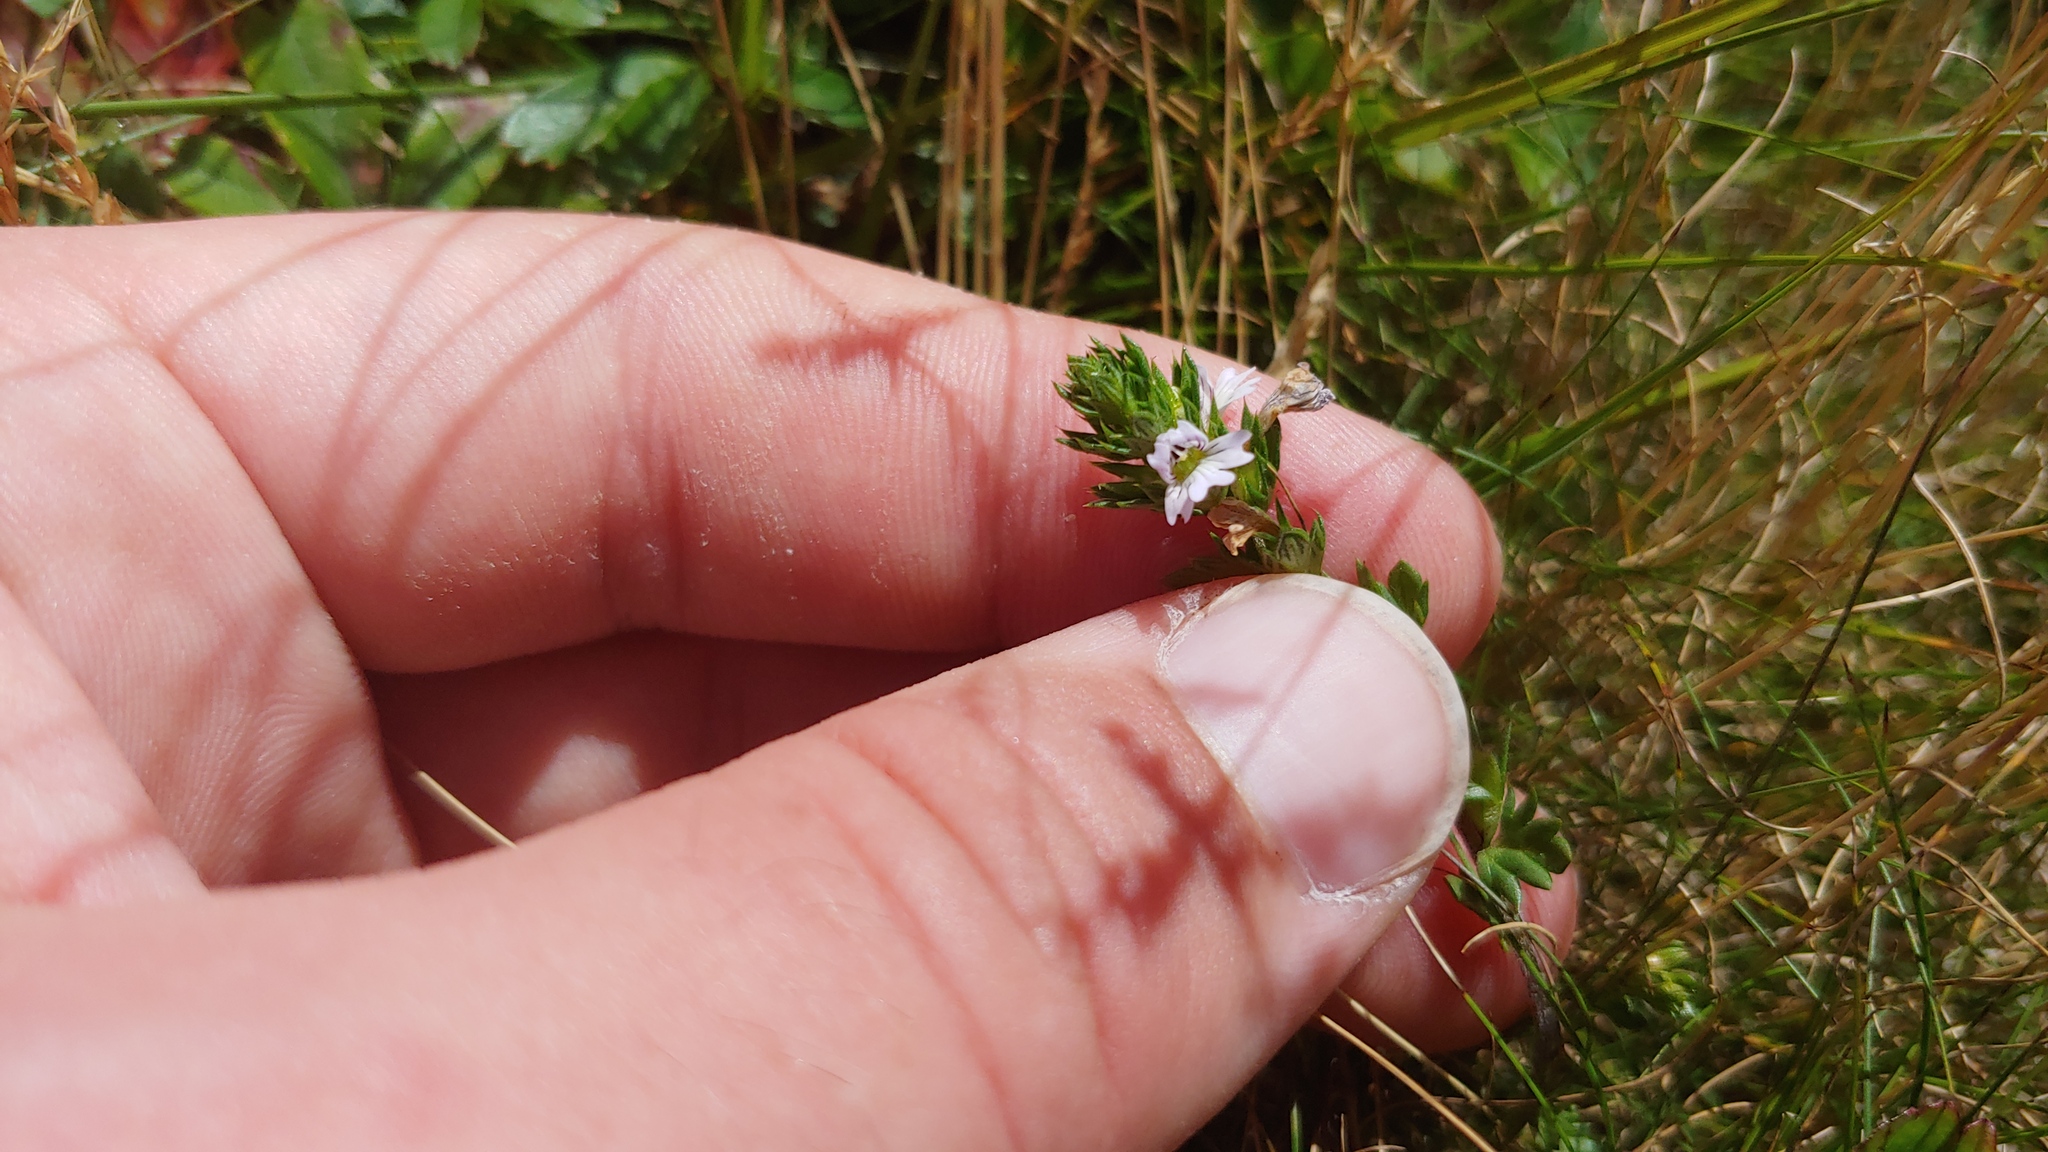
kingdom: Plantae
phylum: Tracheophyta
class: Magnoliopsida
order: Lamiales
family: Orobanchaceae
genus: Euphrasia
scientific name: Euphrasia nemorosa
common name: Common eyebright
